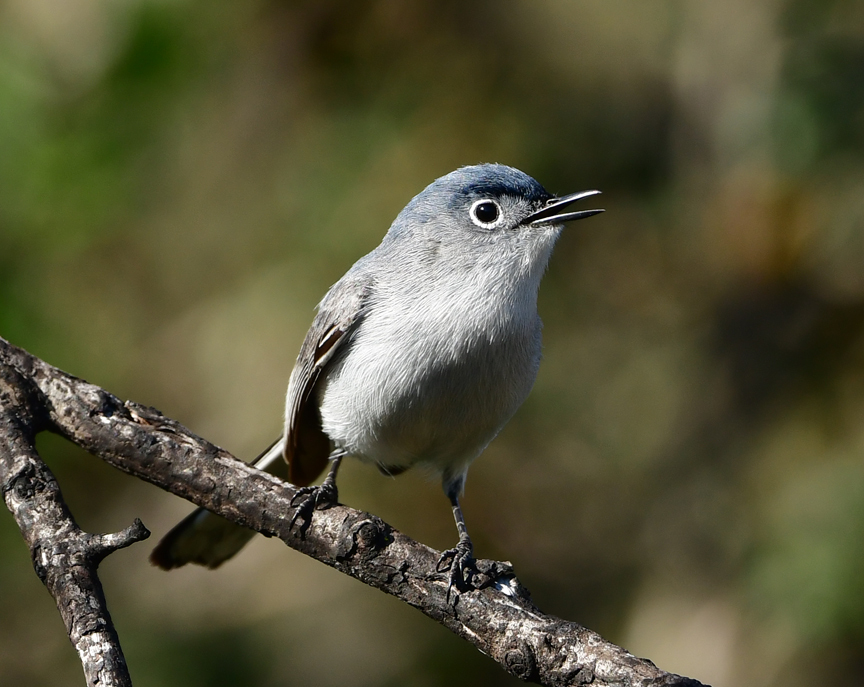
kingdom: Animalia
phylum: Chordata
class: Aves
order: Passeriformes
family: Polioptilidae
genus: Polioptila
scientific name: Polioptila caerulea
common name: Blue-gray gnatcatcher
